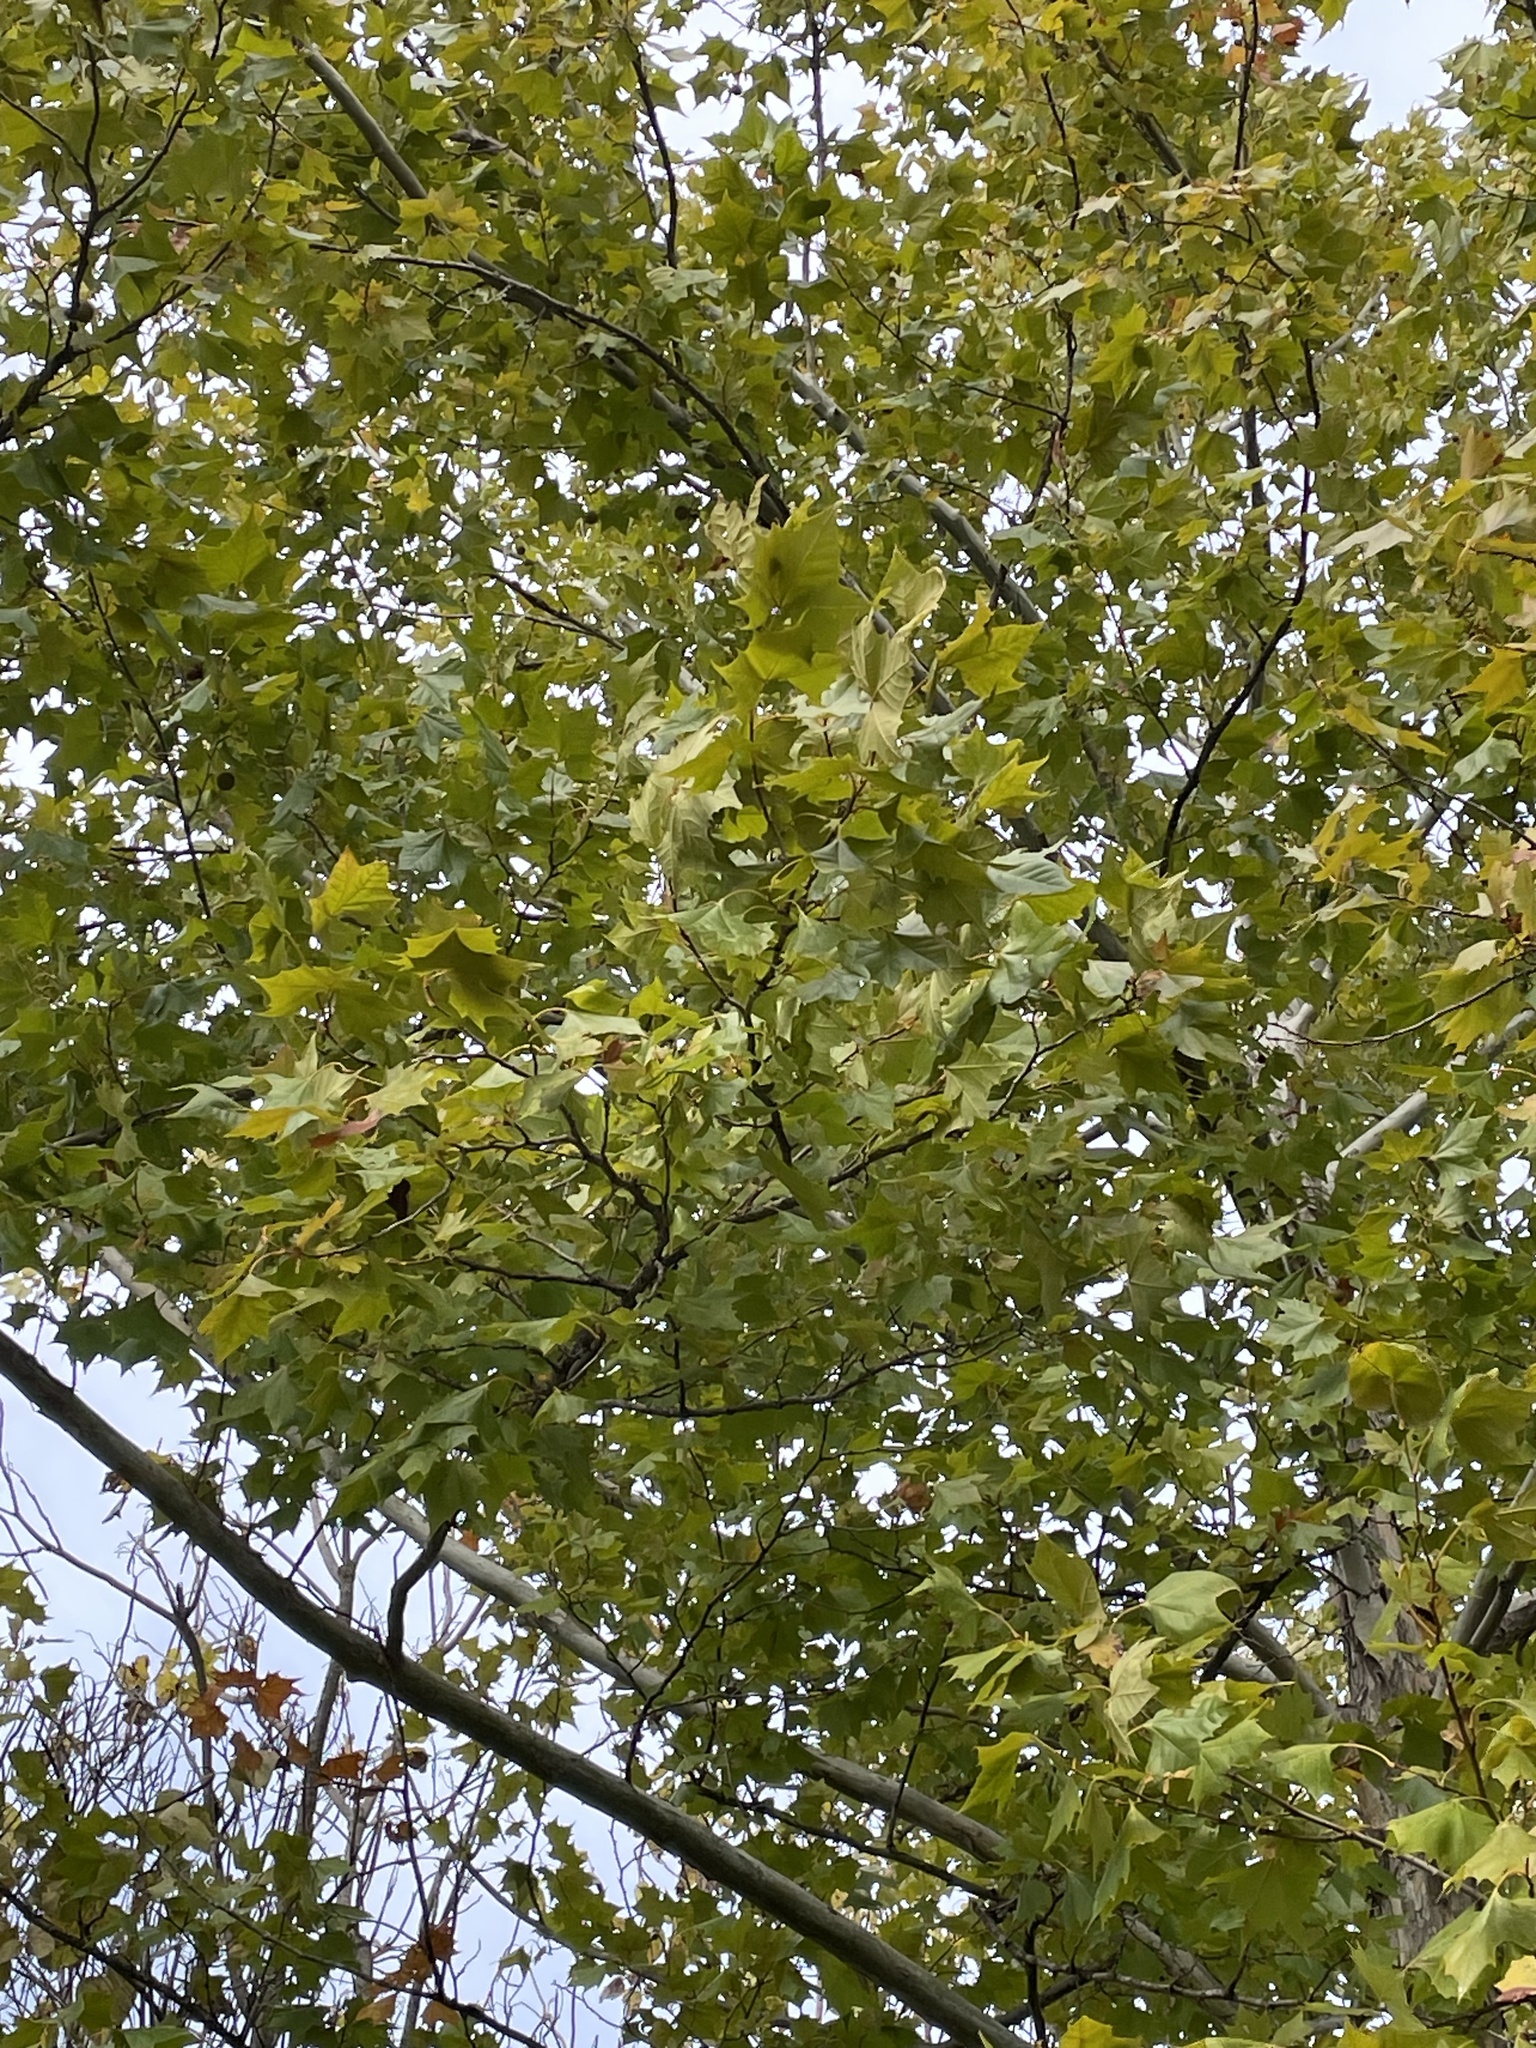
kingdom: Plantae
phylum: Tracheophyta
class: Magnoliopsida
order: Proteales
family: Platanaceae
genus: Platanus
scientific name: Platanus occidentalis
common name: American sycamore
